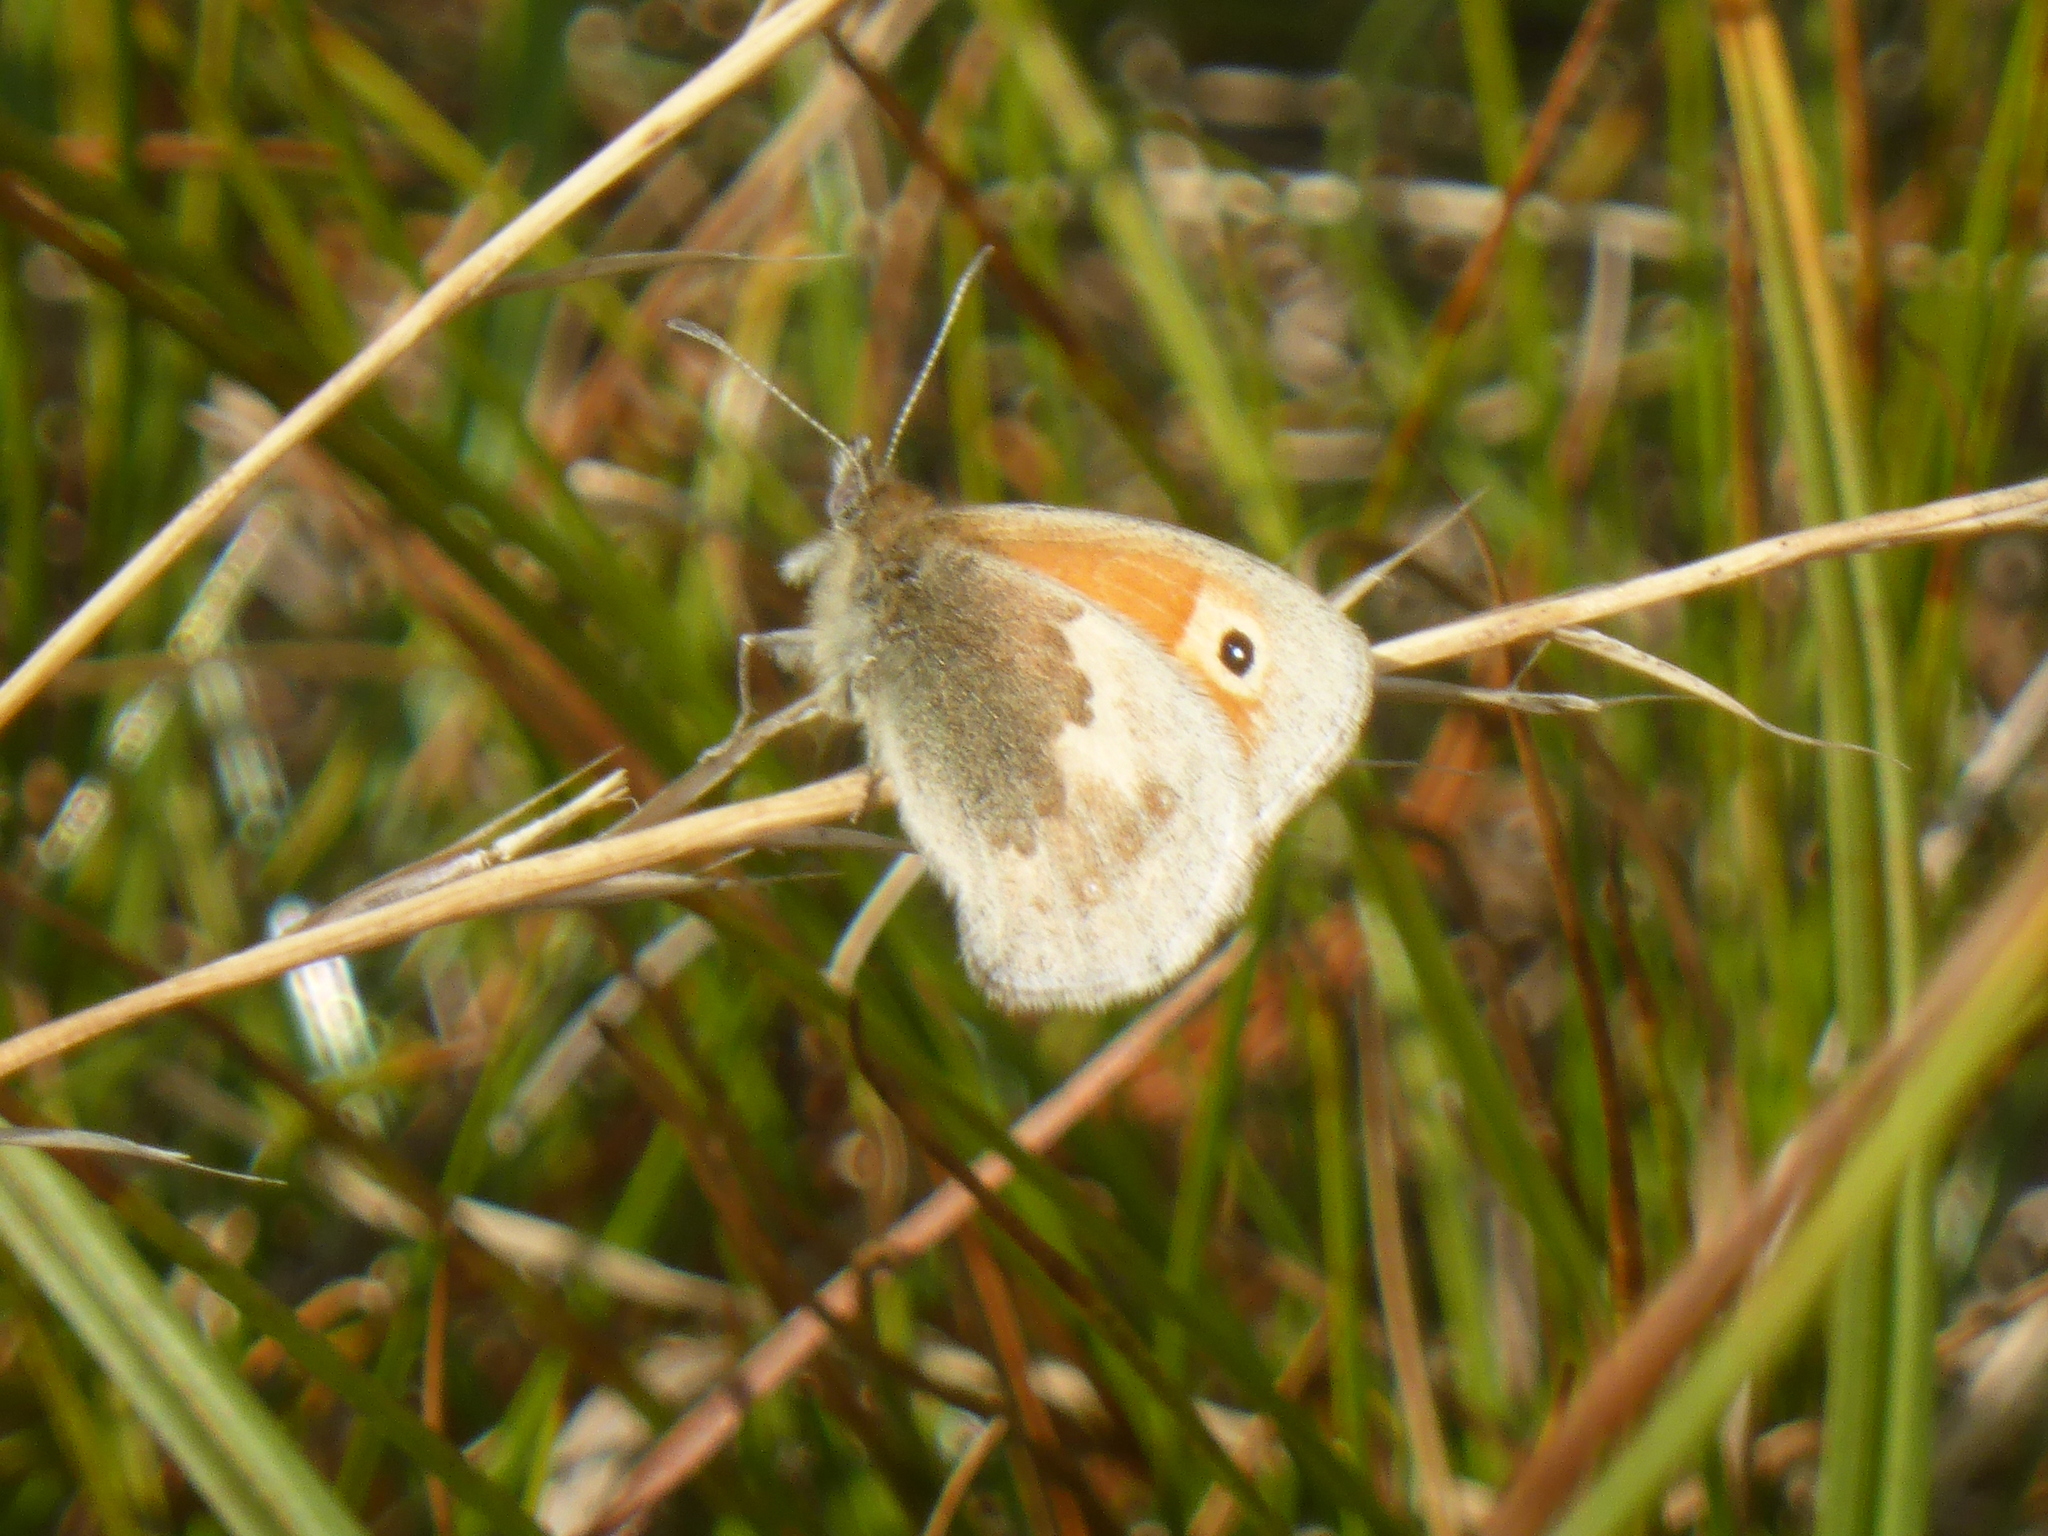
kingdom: Animalia
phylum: Arthropoda
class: Insecta
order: Lepidoptera
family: Nymphalidae
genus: Coenonympha
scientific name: Coenonympha pamphilus
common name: Small heath
